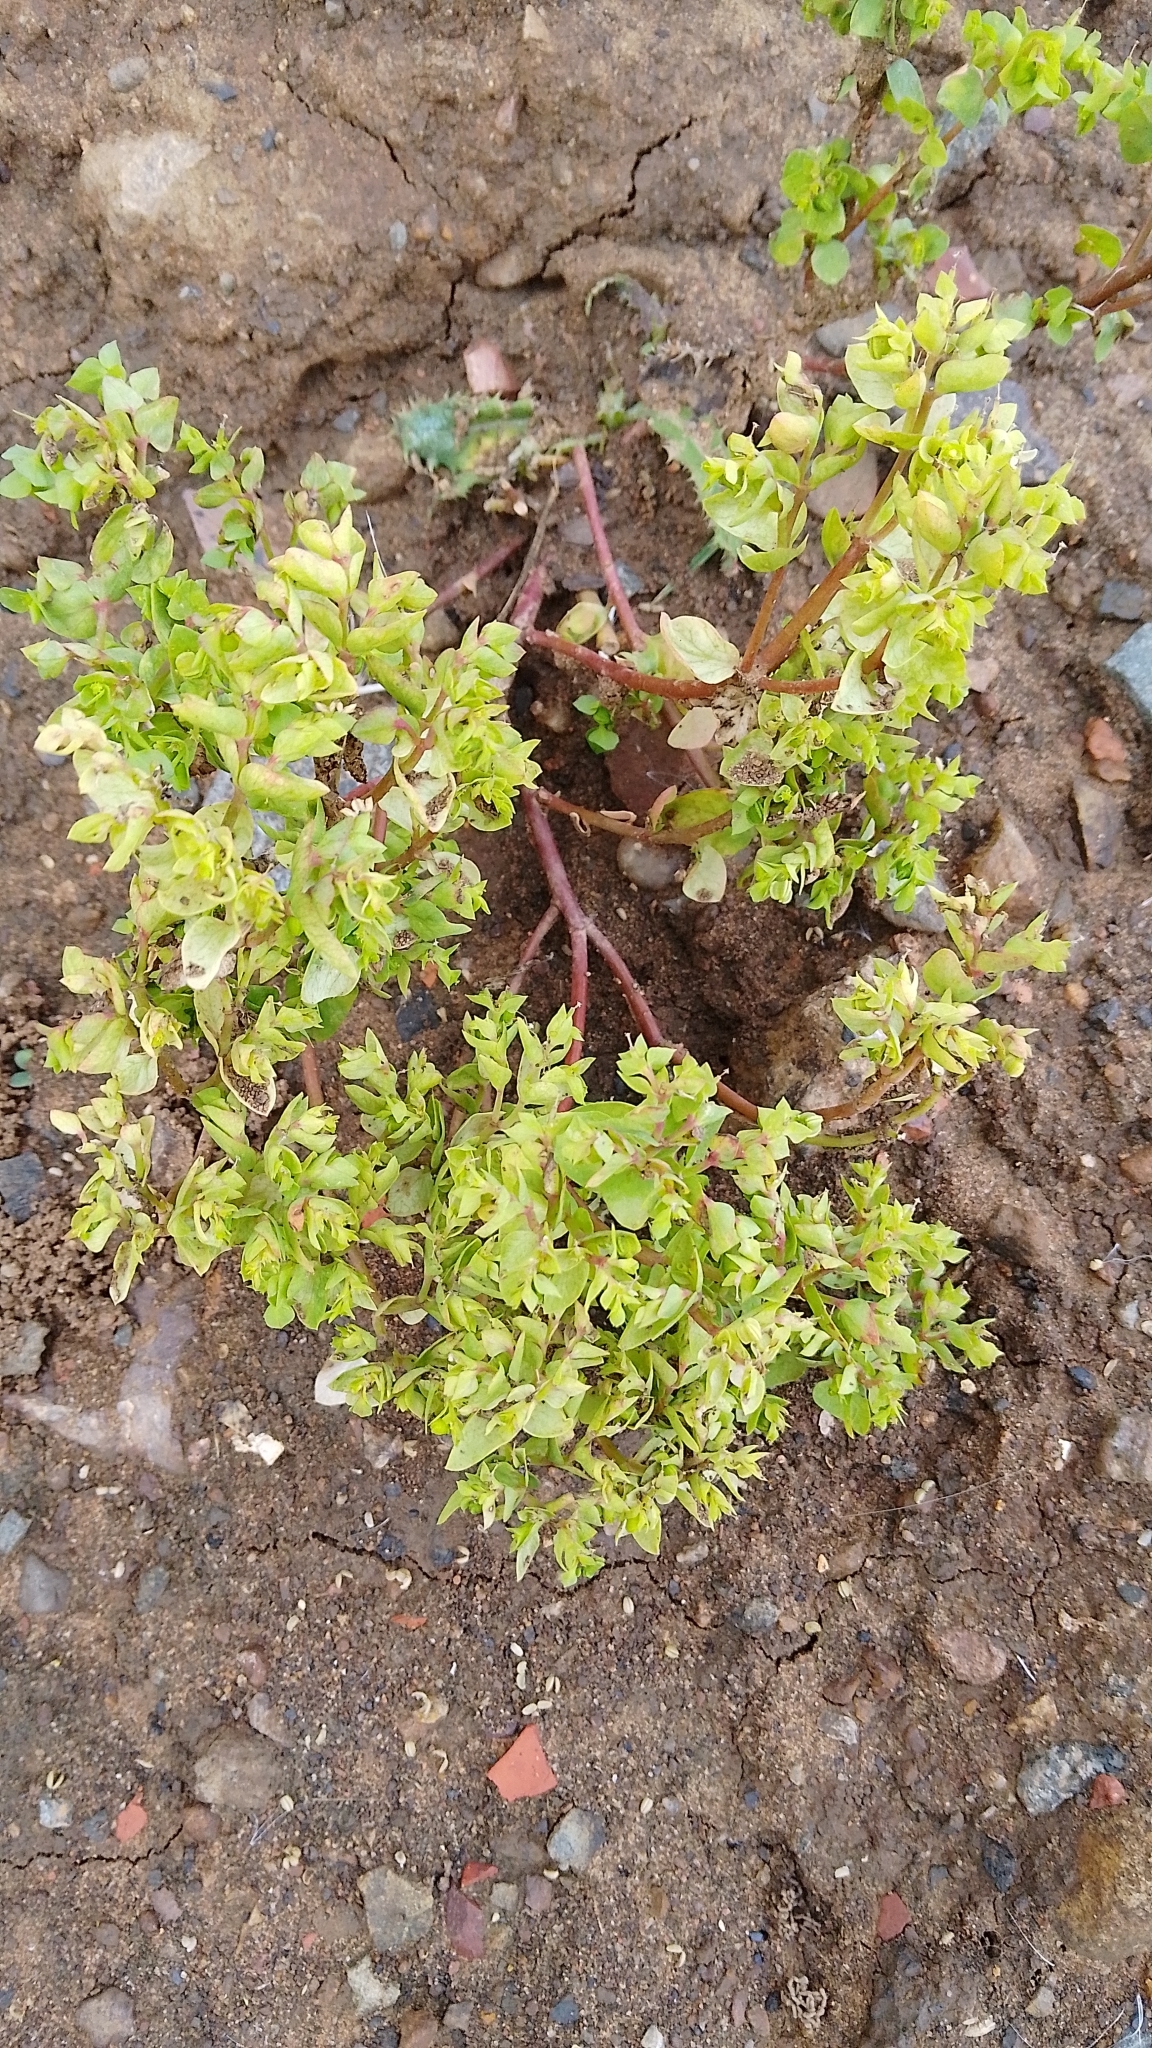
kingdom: Plantae
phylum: Tracheophyta
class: Magnoliopsida
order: Malpighiales
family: Euphorbiaceae
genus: Euphorbia
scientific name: Euphorbia peplus
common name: Petty spurge
